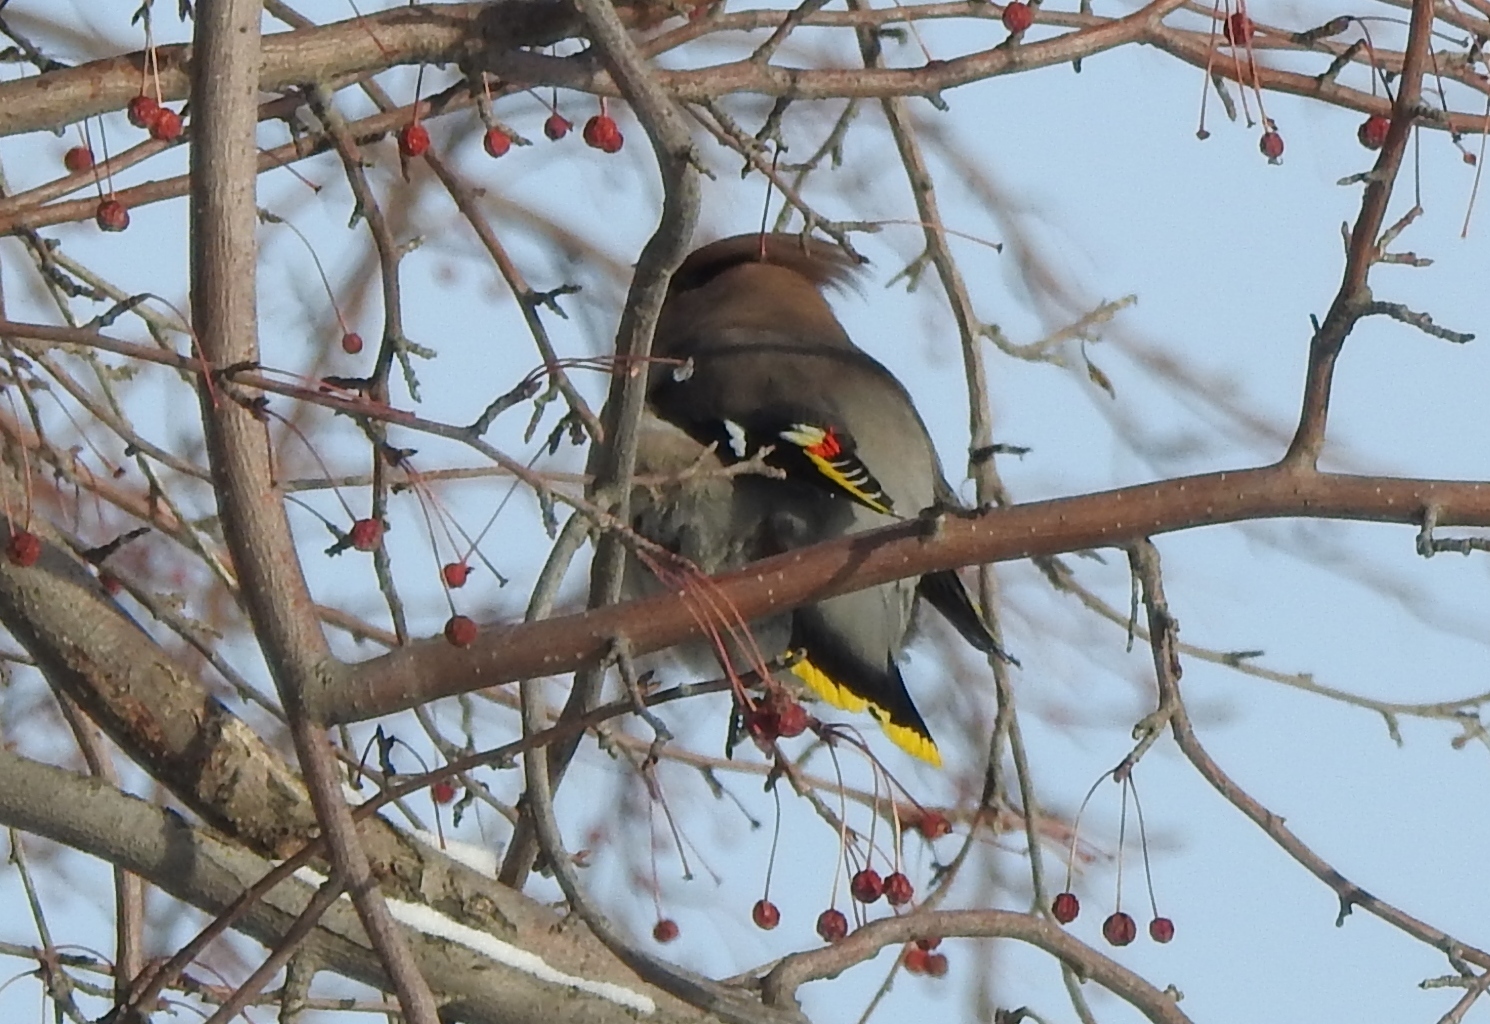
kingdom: Animalia
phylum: Chordata
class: Aves
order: Passeriformes
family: Bombycillidae
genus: Bombycilla
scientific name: Bombycilla garrulus
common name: Bohemian waxwing
